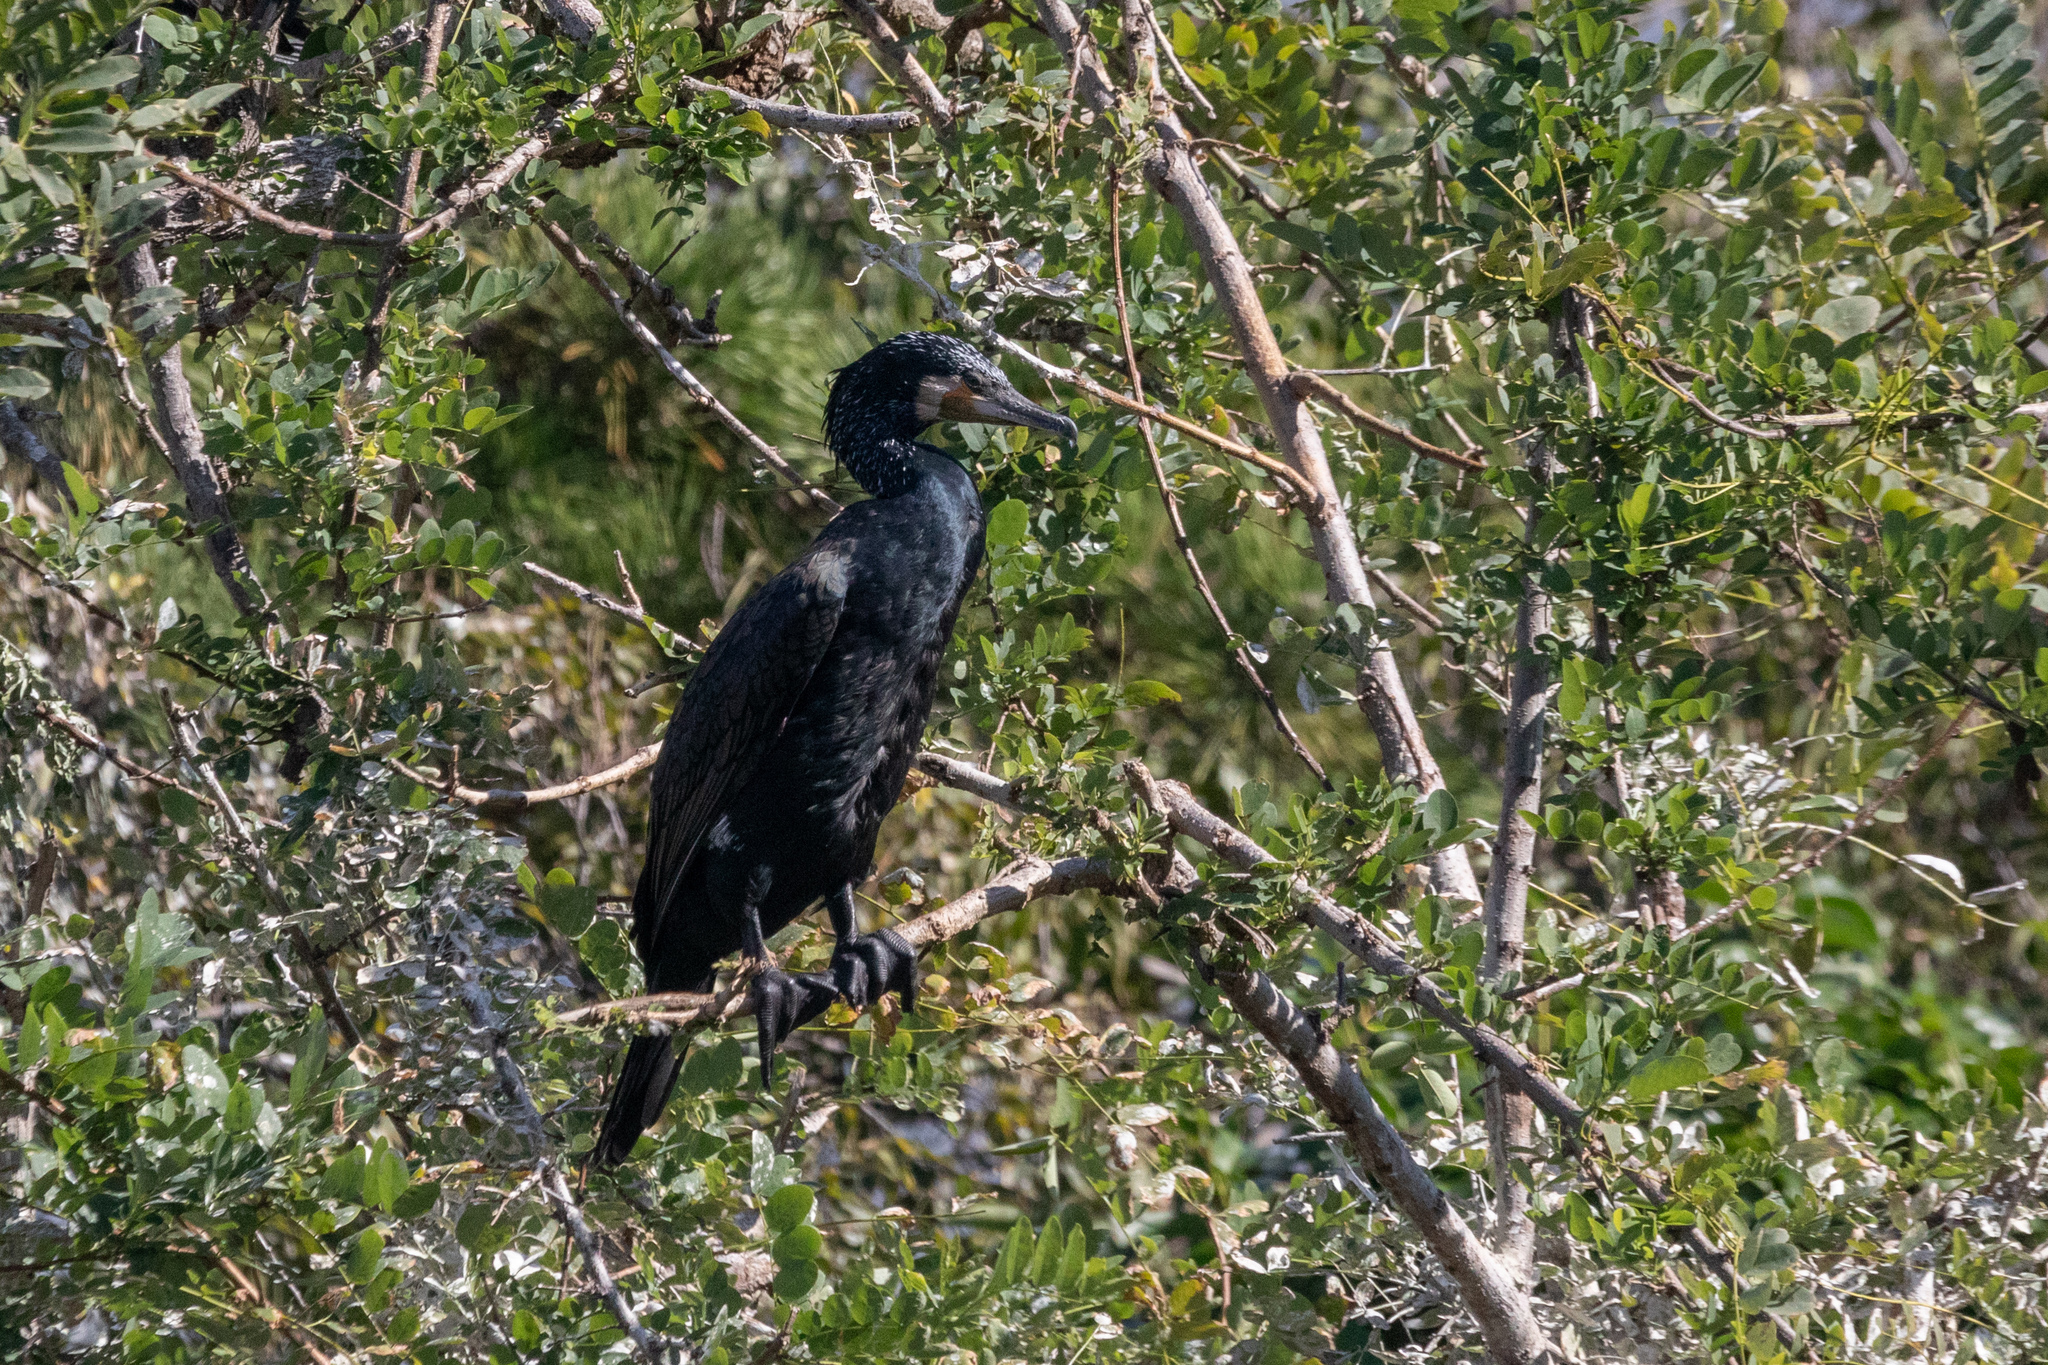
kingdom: Animalia
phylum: Chordata
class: Aves
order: Suliformes
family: Phalacrocoracidae
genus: Phalacrocorax
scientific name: Phalacrocorax carbo
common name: Great cormorant
